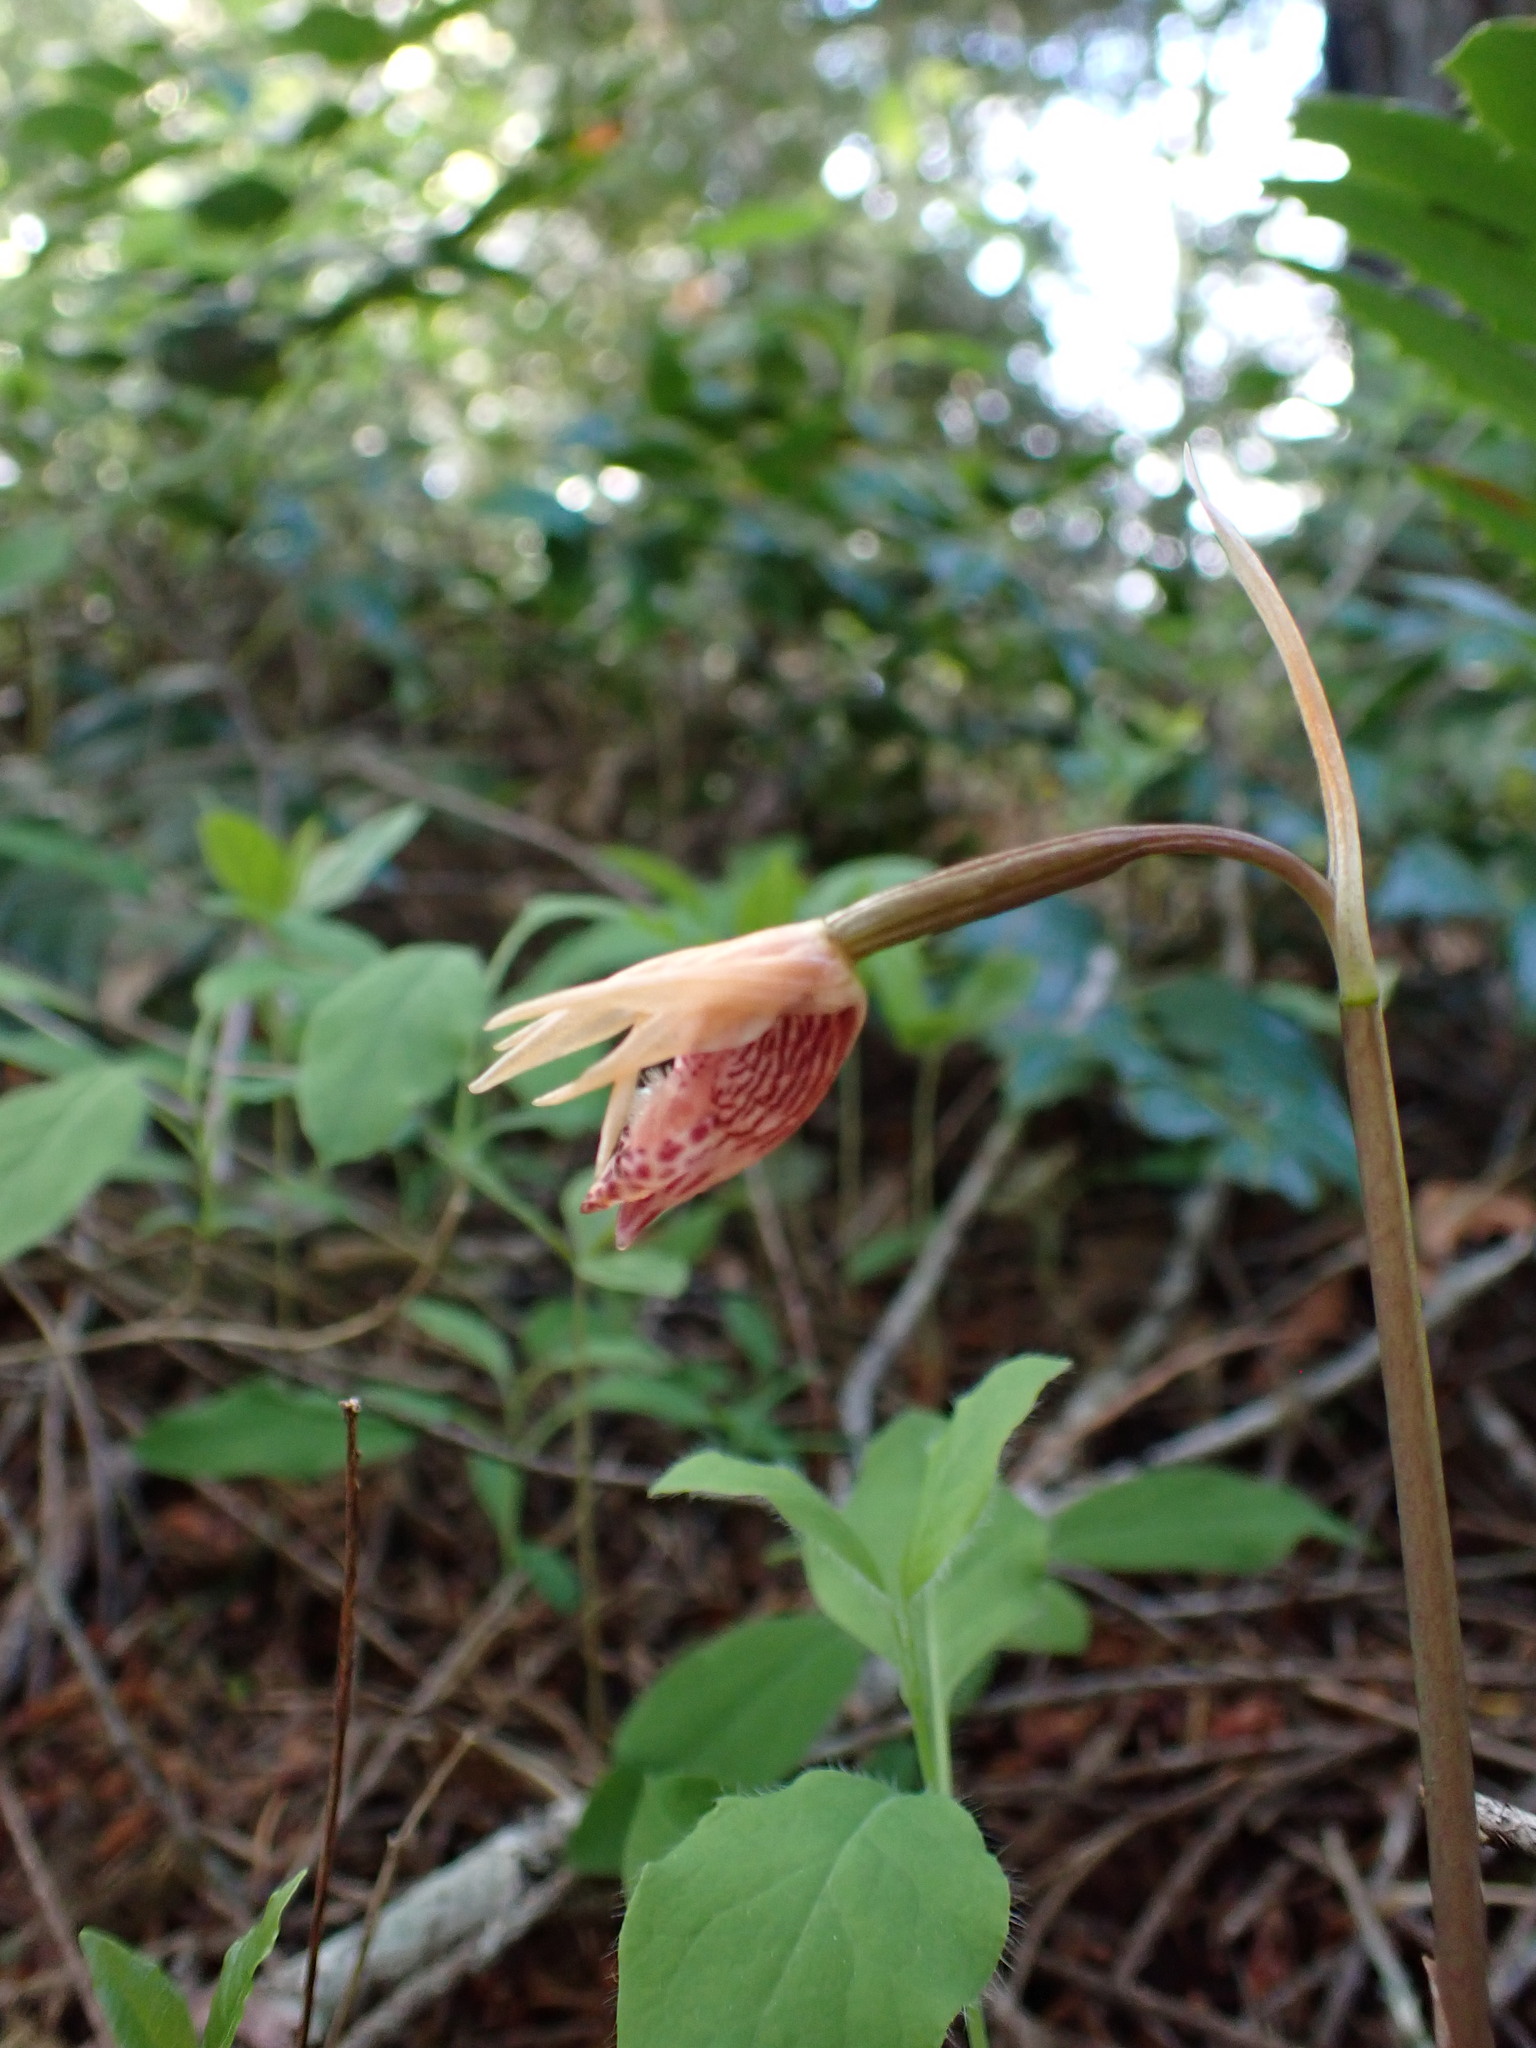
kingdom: Plantae
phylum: Tracheophyta
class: Liliopsida
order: Asparagales
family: Orchidaceae
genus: Calypso
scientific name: Calypso bulbosa
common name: Calypso
